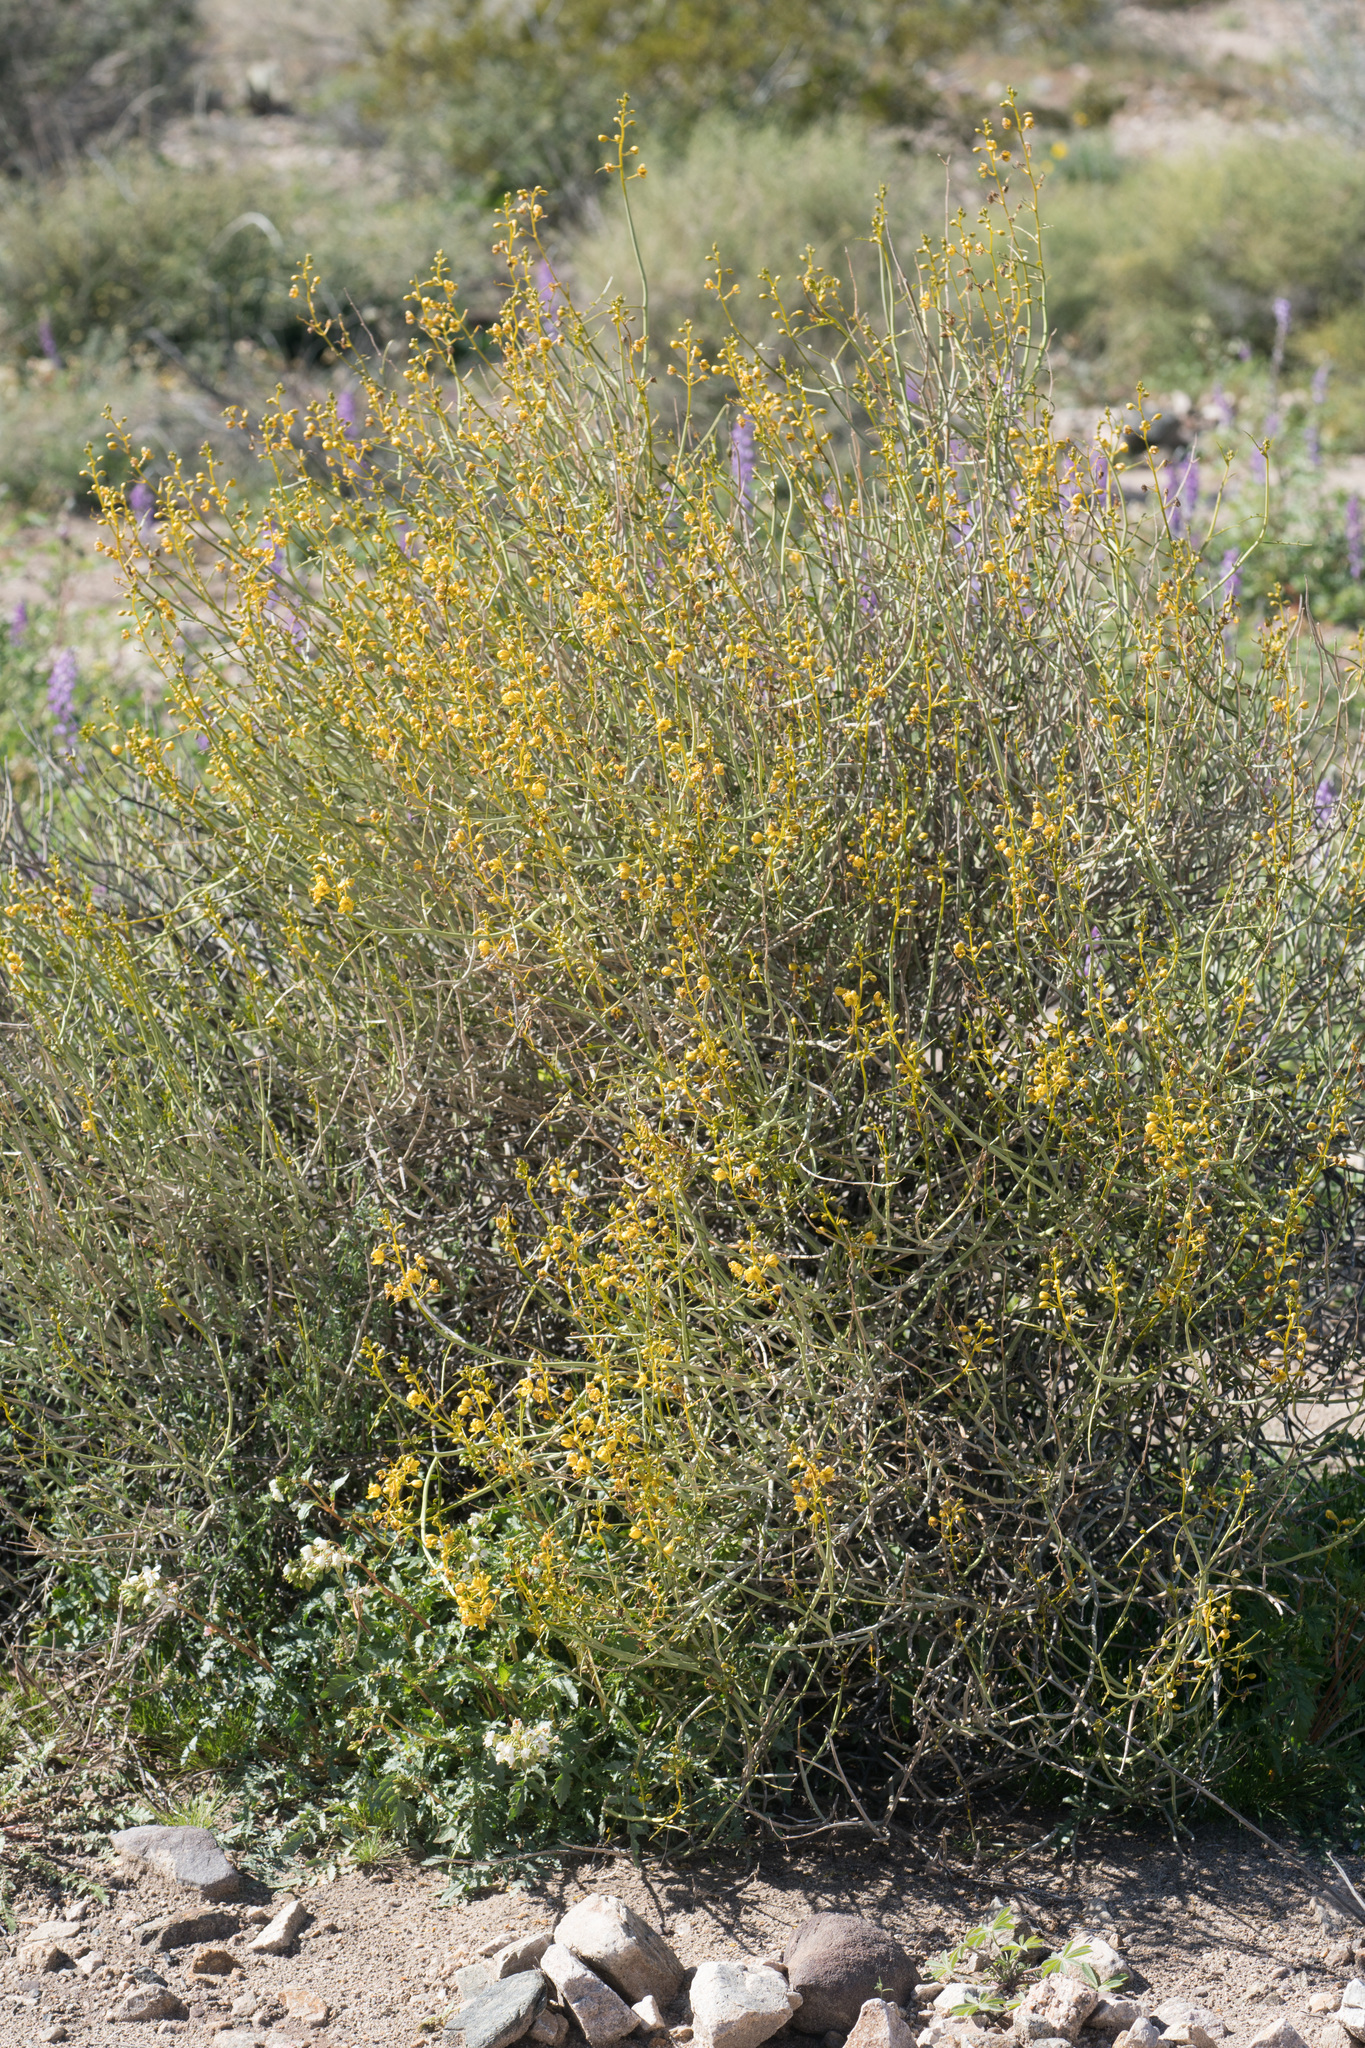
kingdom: Plantae
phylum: Tracheophyta
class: Magnoliopsida
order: Fabales
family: Fabaceae
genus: Senna
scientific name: Senna armata
